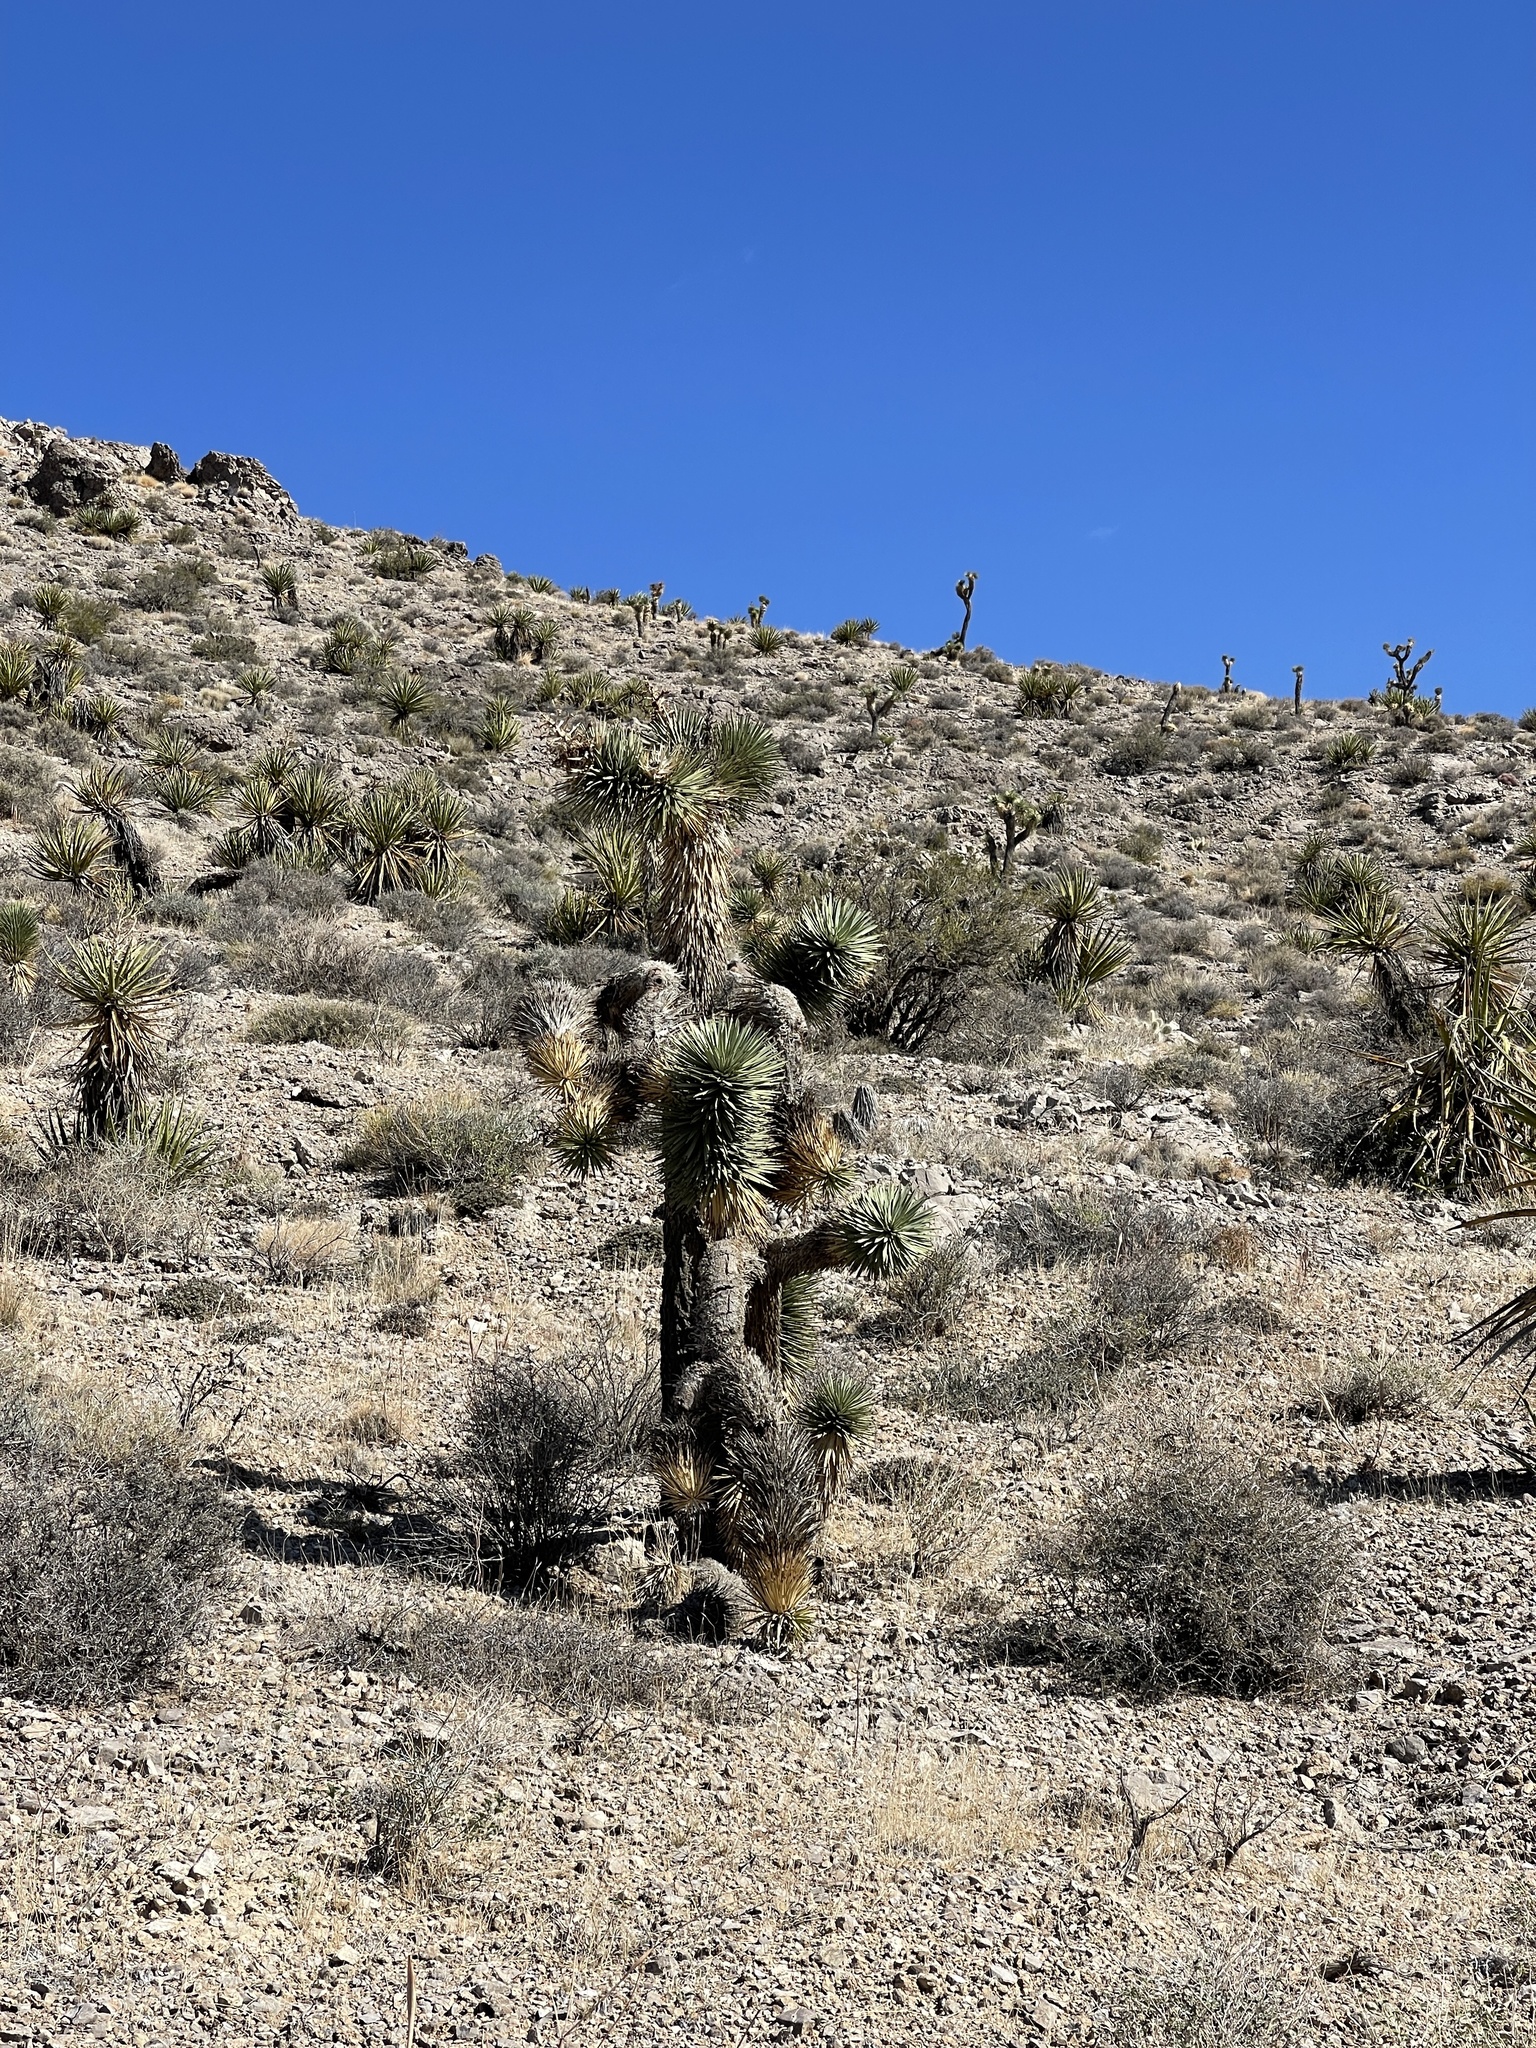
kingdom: Plantae
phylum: Tracheophyta
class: Liliopsida
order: Asparagales
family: Asparagaceae
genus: Yucca
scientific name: Yucca brevifolia
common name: Joshua tree
